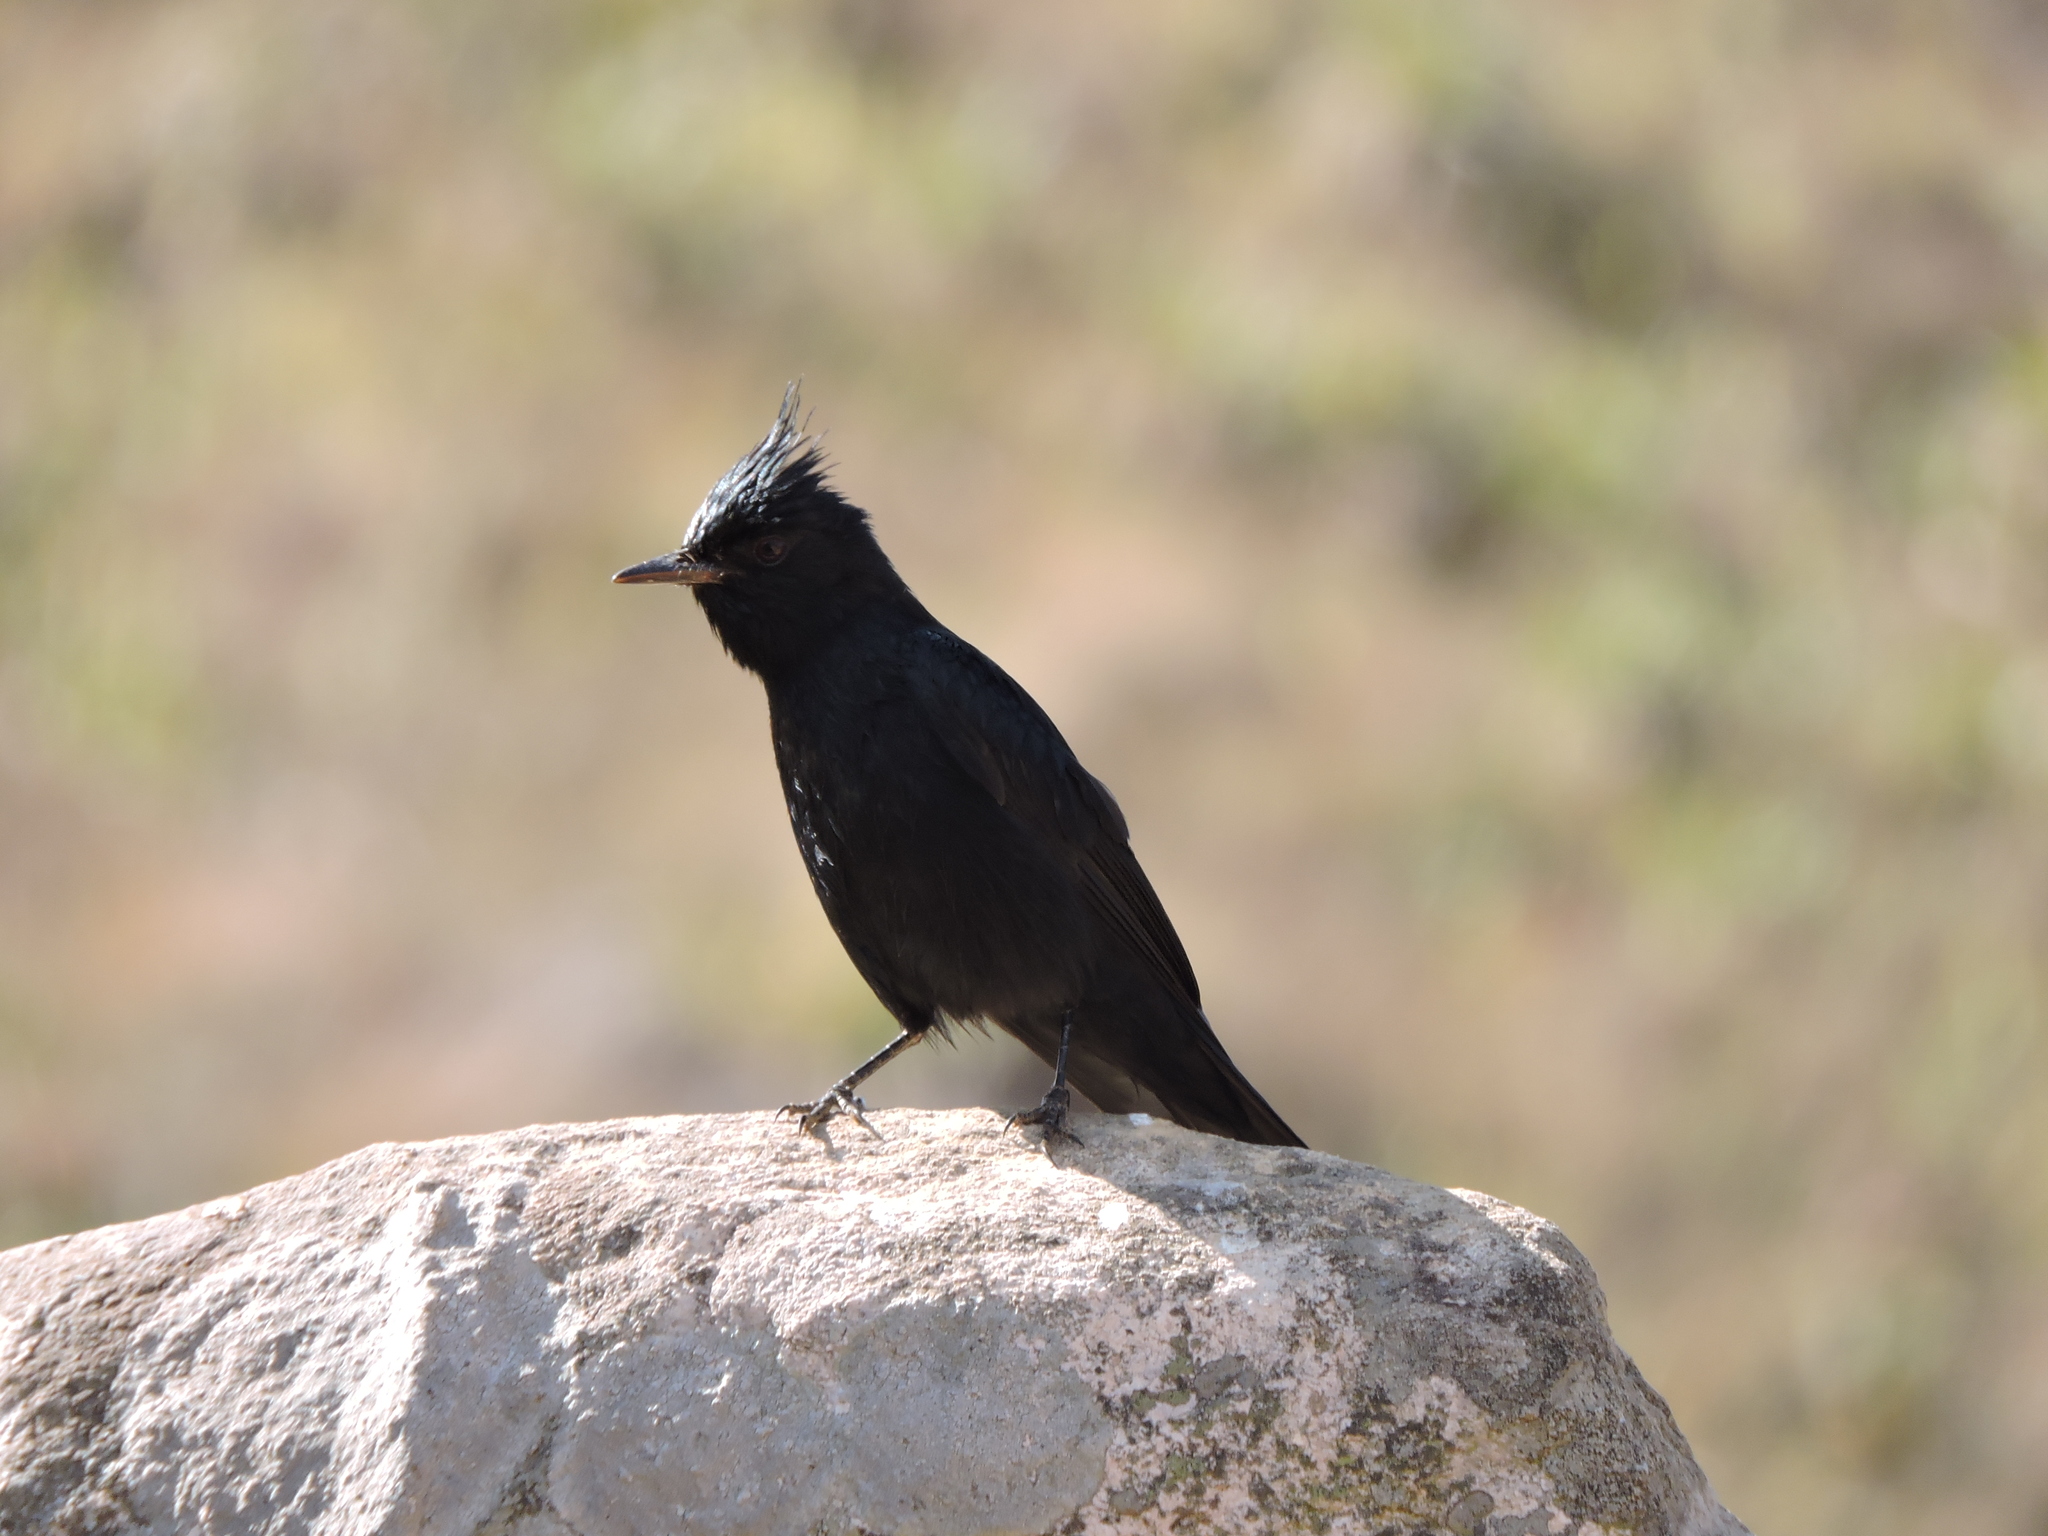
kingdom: Animalia
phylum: Chordata
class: Aves
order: Passeriformes
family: Tyrannidae
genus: Knipolegus
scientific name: Knipolegus lophotes
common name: Crested black tyrant
